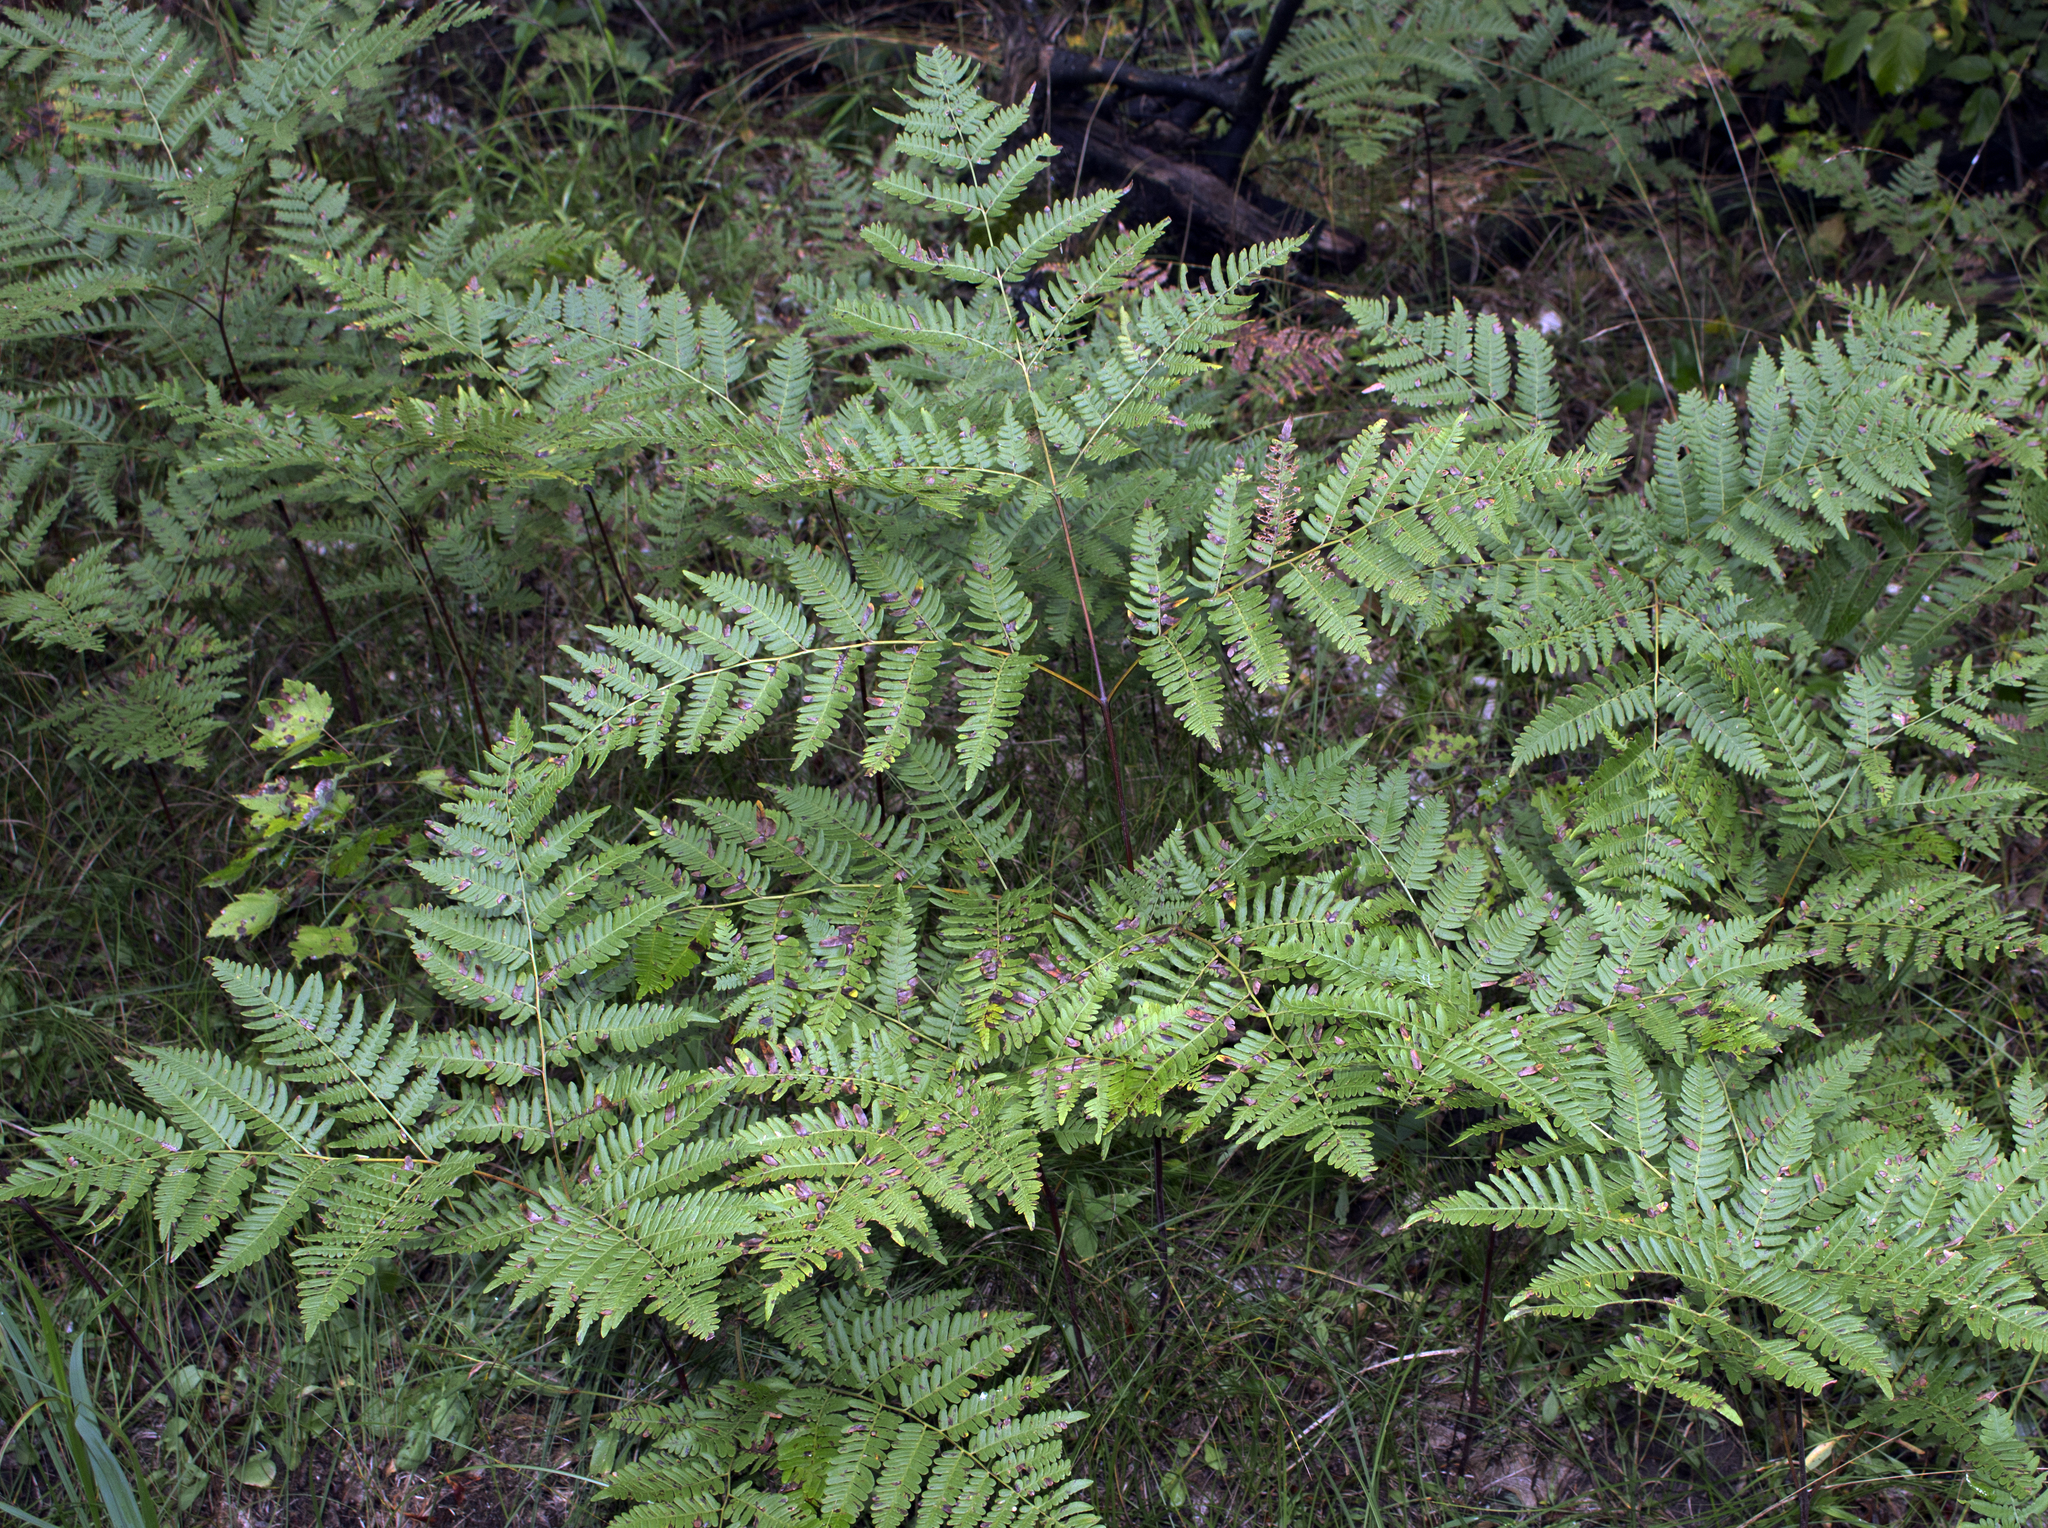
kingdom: Plantae
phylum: Tracheophyta
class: Polypodiopsida
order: Polypodiales
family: Dennstaedtiaceae
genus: Pteridium
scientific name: Pteridium aquilinum
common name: Bracken
